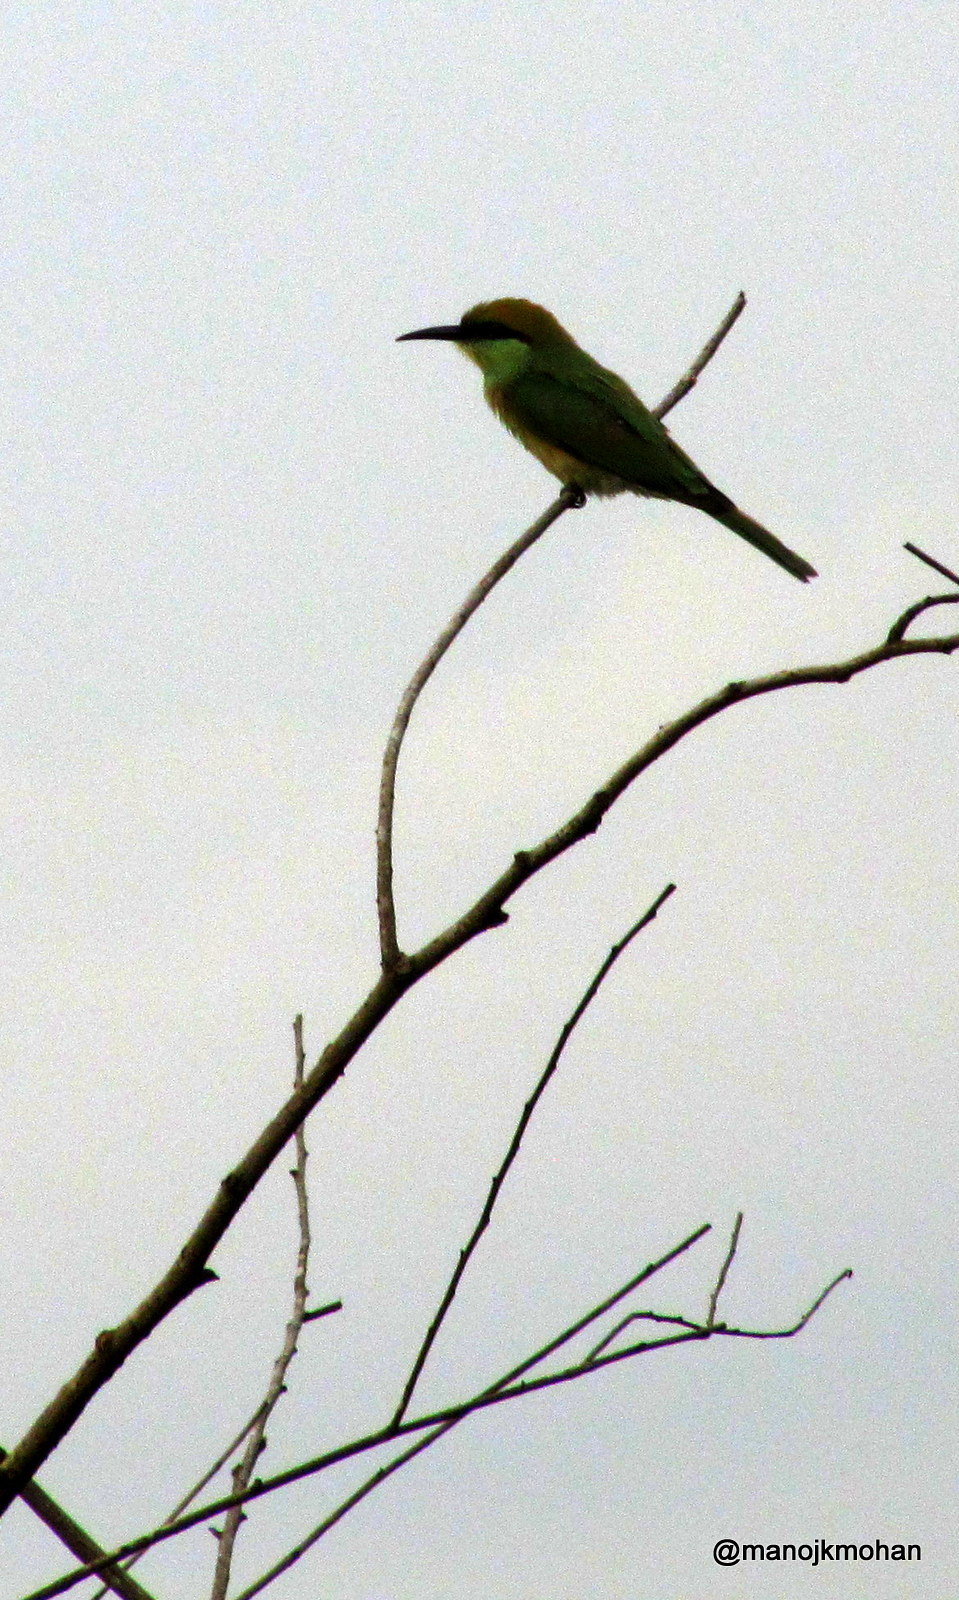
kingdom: Animalia
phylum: Chordata
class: Aves
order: Coraciiformes
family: Meropidae
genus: Merops
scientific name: Merops orientalis
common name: Green bee-eater
